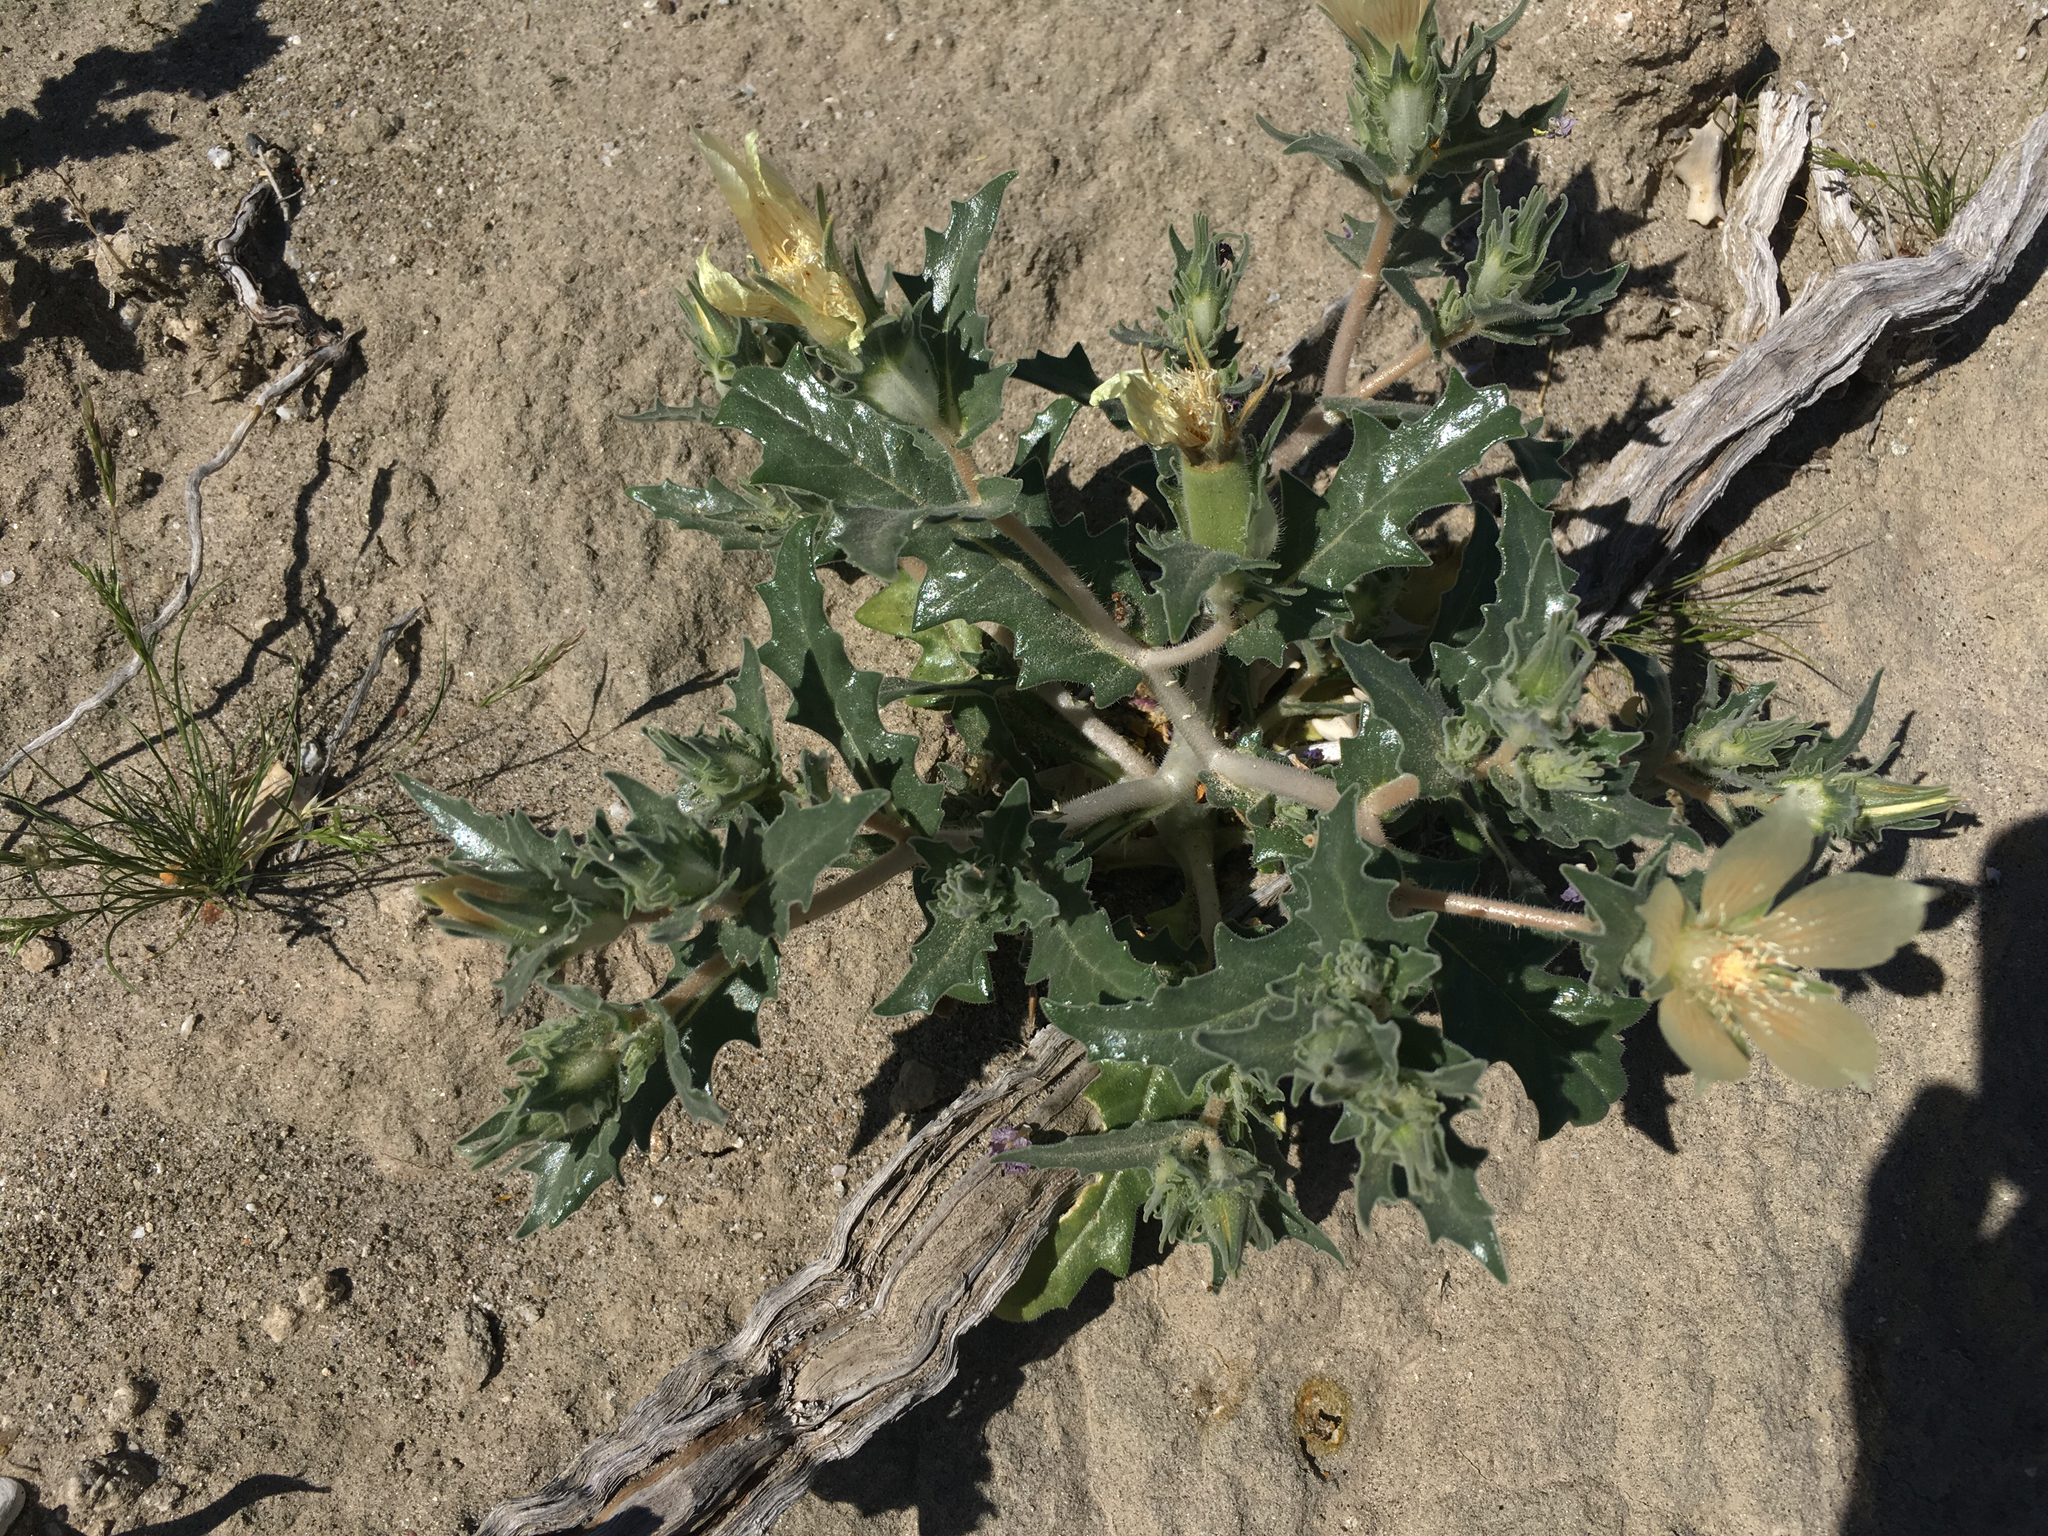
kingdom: Plantae
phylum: Tracheophyta
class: Magnoliopsida
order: Cornales
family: Loasaceae
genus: Mentzelia
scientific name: Mentzelia involucrata
